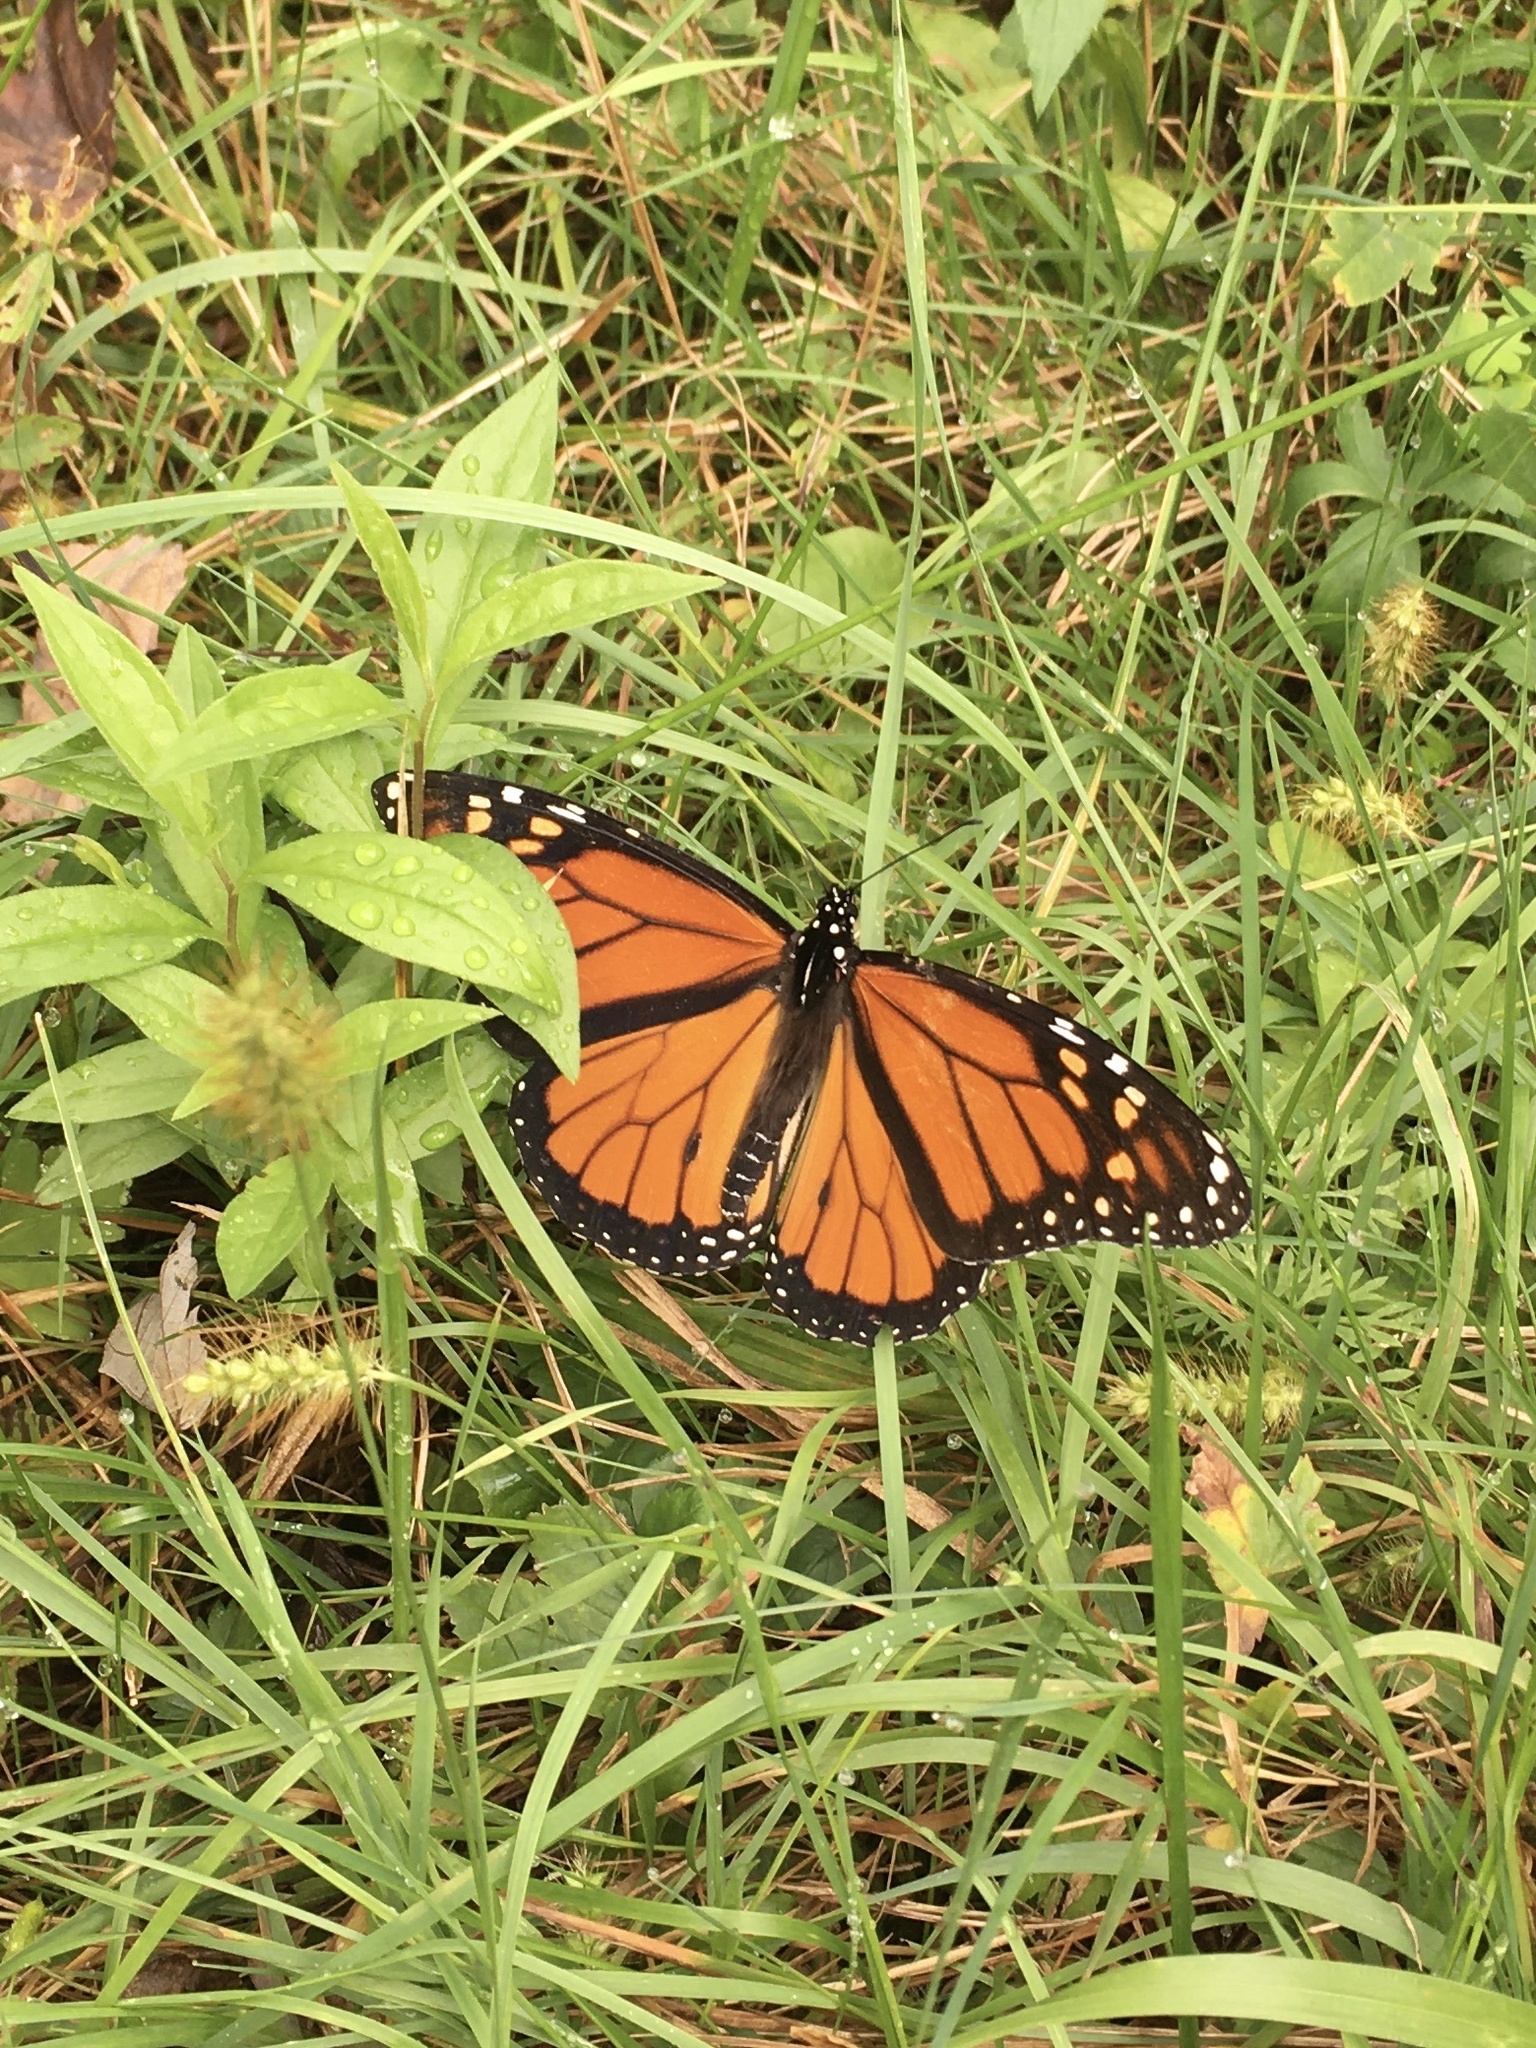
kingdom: Animalia
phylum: Arthropoda
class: Insecta
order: Lepidoptera
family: Nymphalidae
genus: Danaus
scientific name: Danaus plexippus
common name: Monarch
